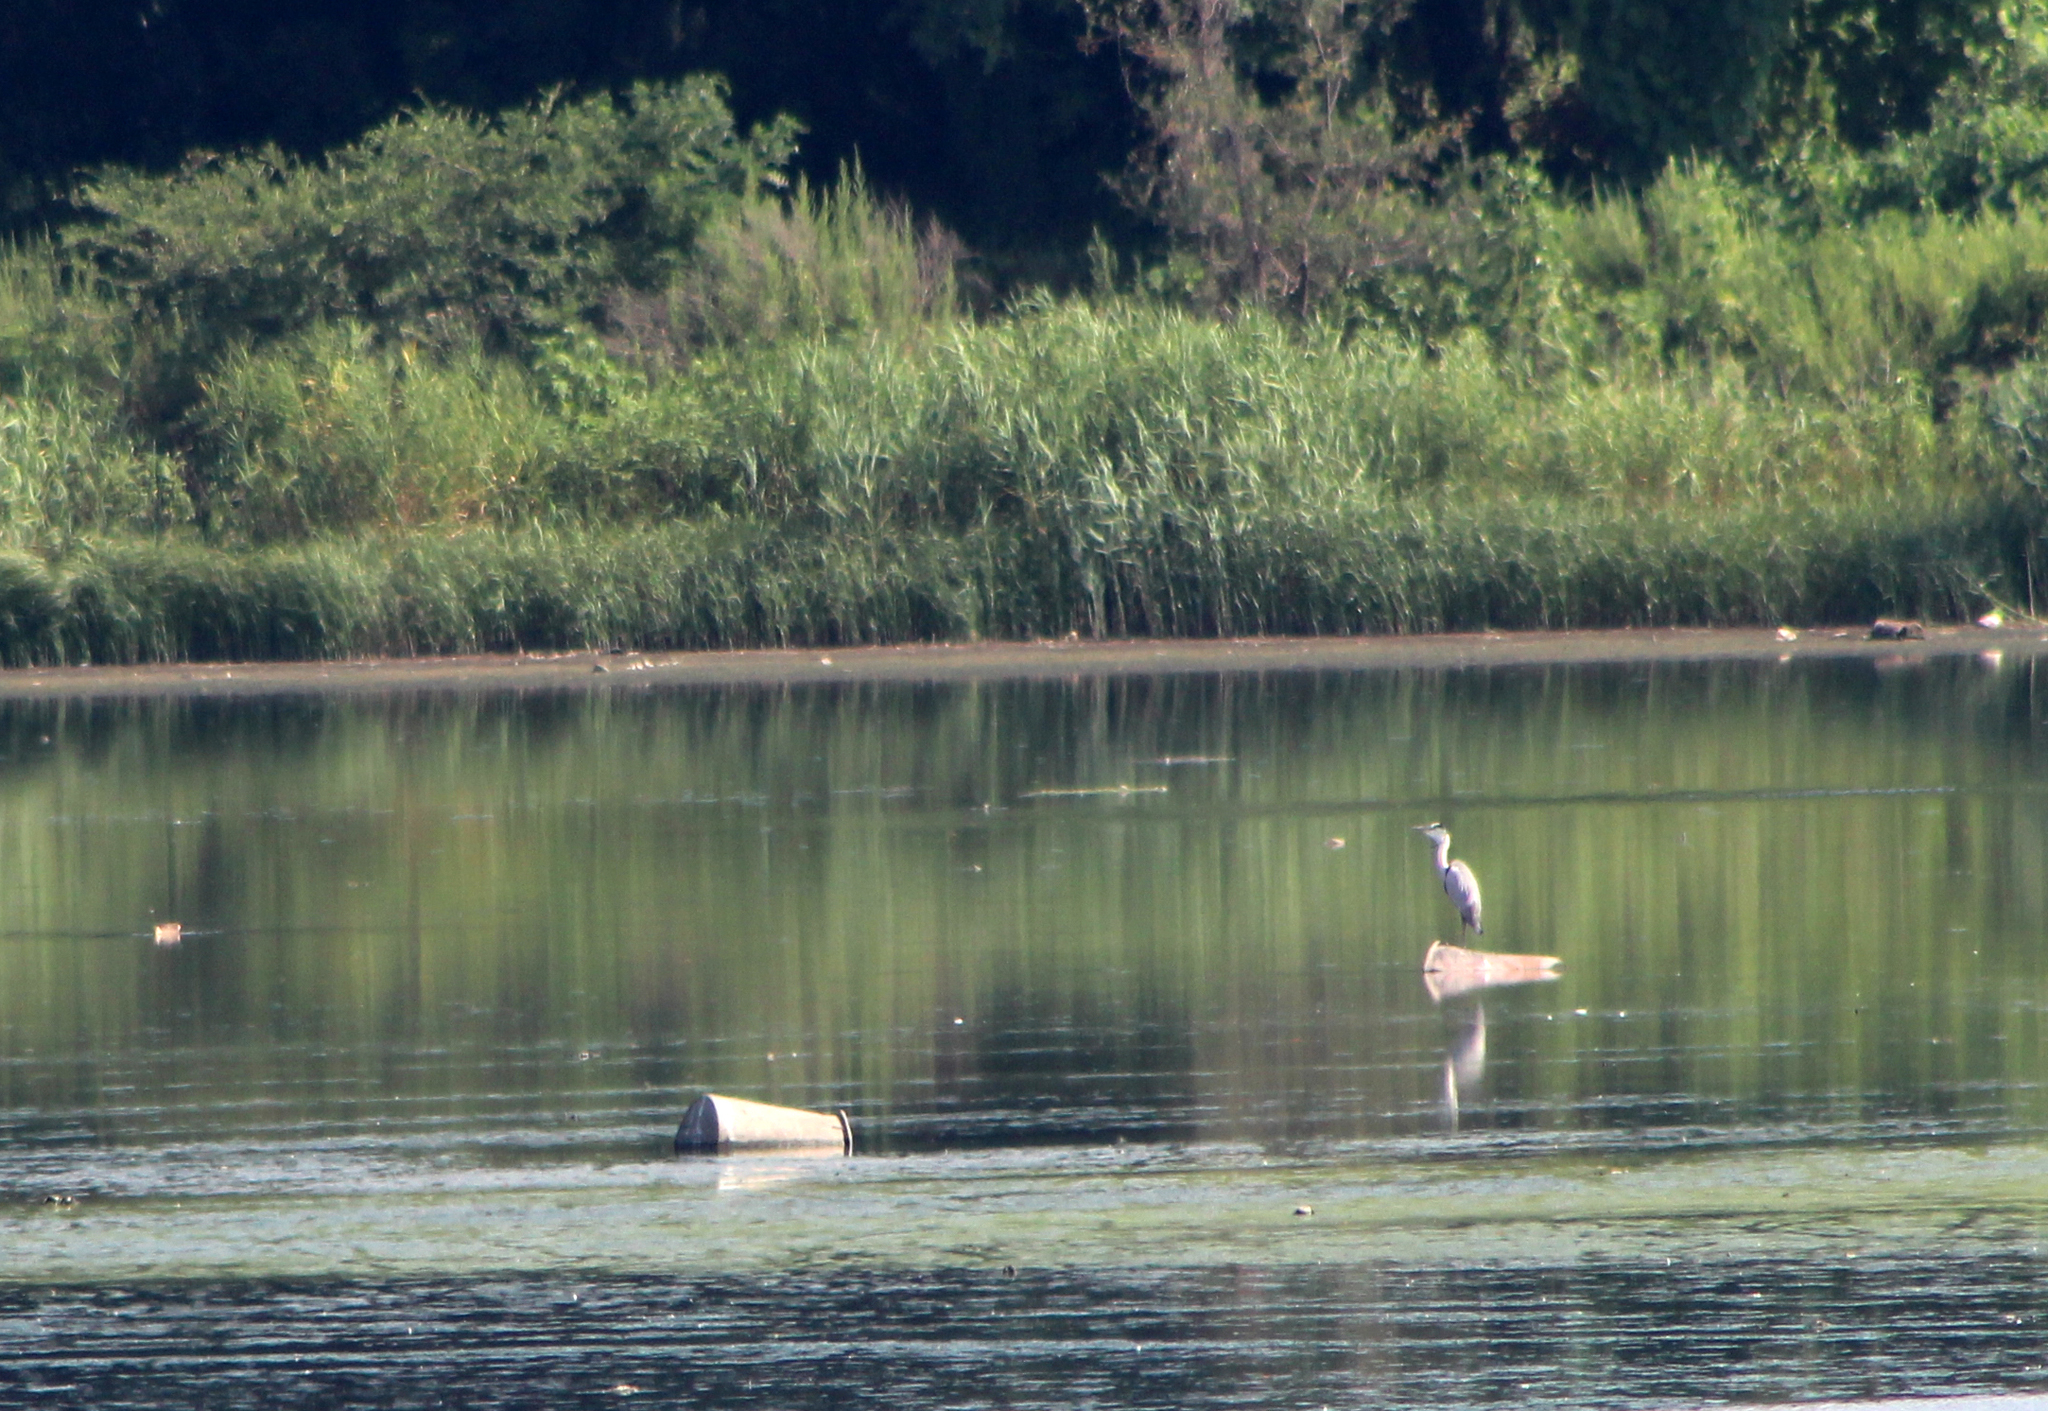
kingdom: Animalia
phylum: Chordata
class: Aves
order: Pelecaniformes
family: Ardeidae
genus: Ardea
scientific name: Ardea cinerea
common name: Grey heron
